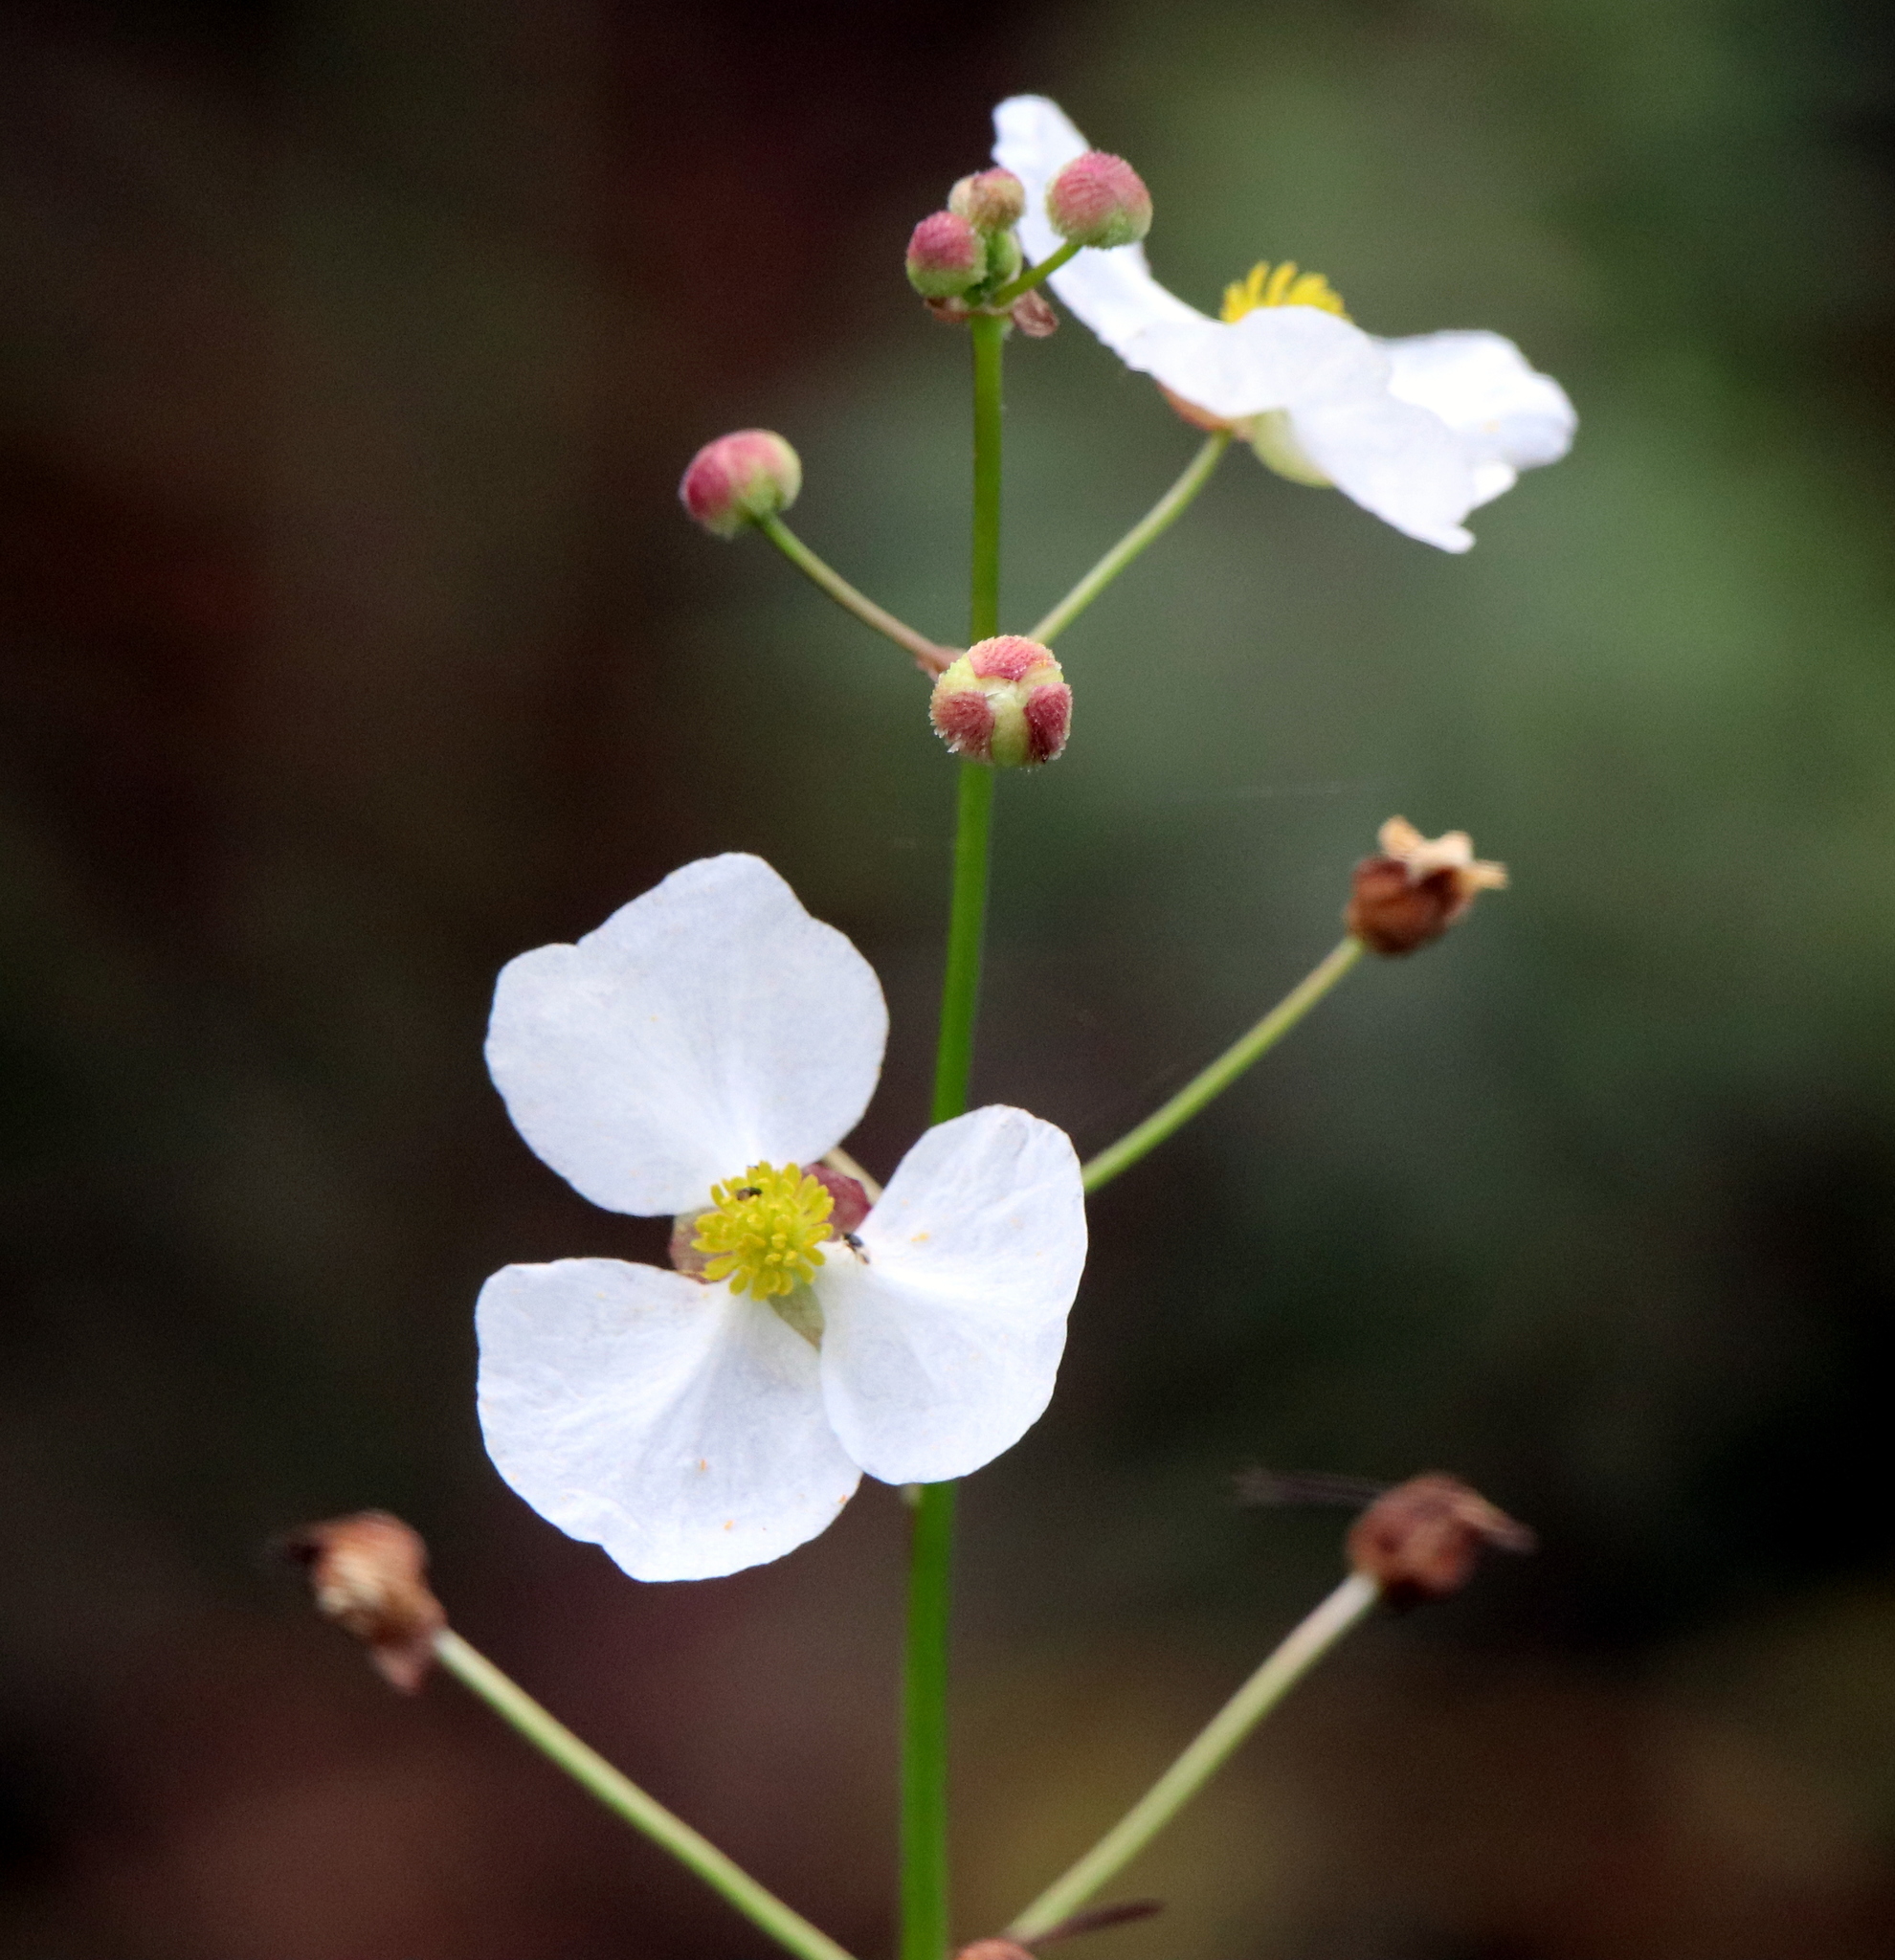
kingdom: Plantae
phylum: Tracheophyta
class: Liliopsida
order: Alismatales
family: Alismataceae
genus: Sagittaria
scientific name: Sagittaria lancifolia
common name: Lance-leaf arrowhead
